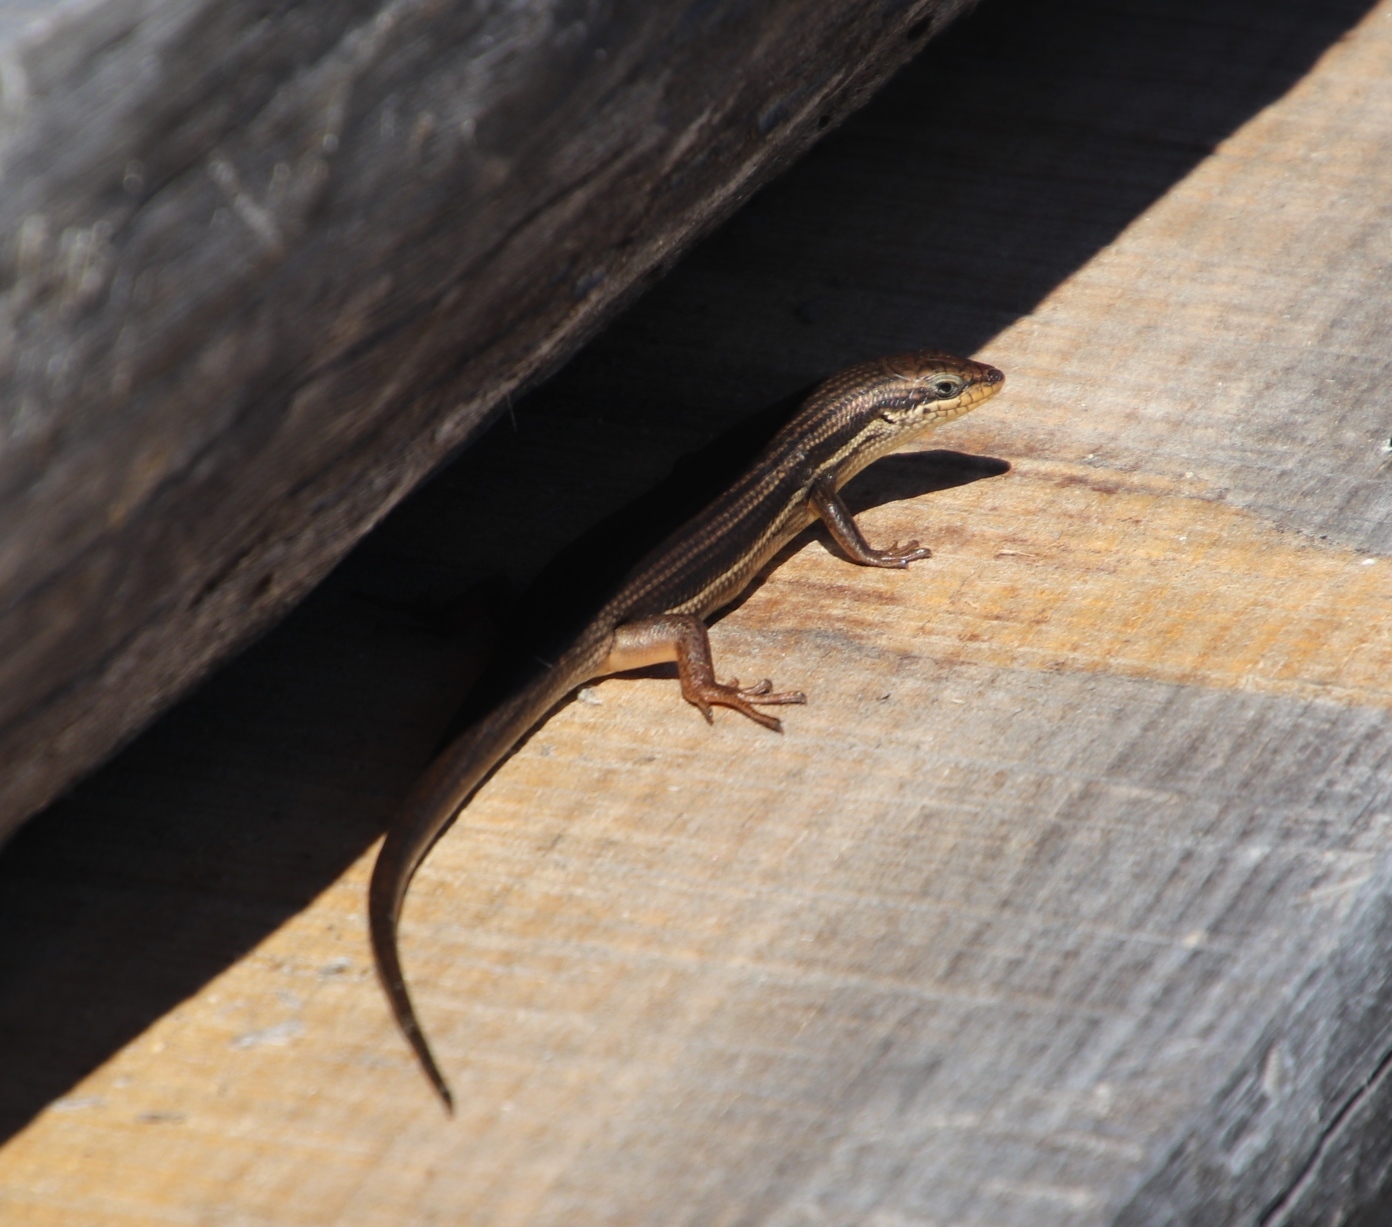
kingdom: Animalia
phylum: Chordata
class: Squamata
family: Scincidae
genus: Trachylepis
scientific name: Trachylepis homalocephala
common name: Red-sided skink
